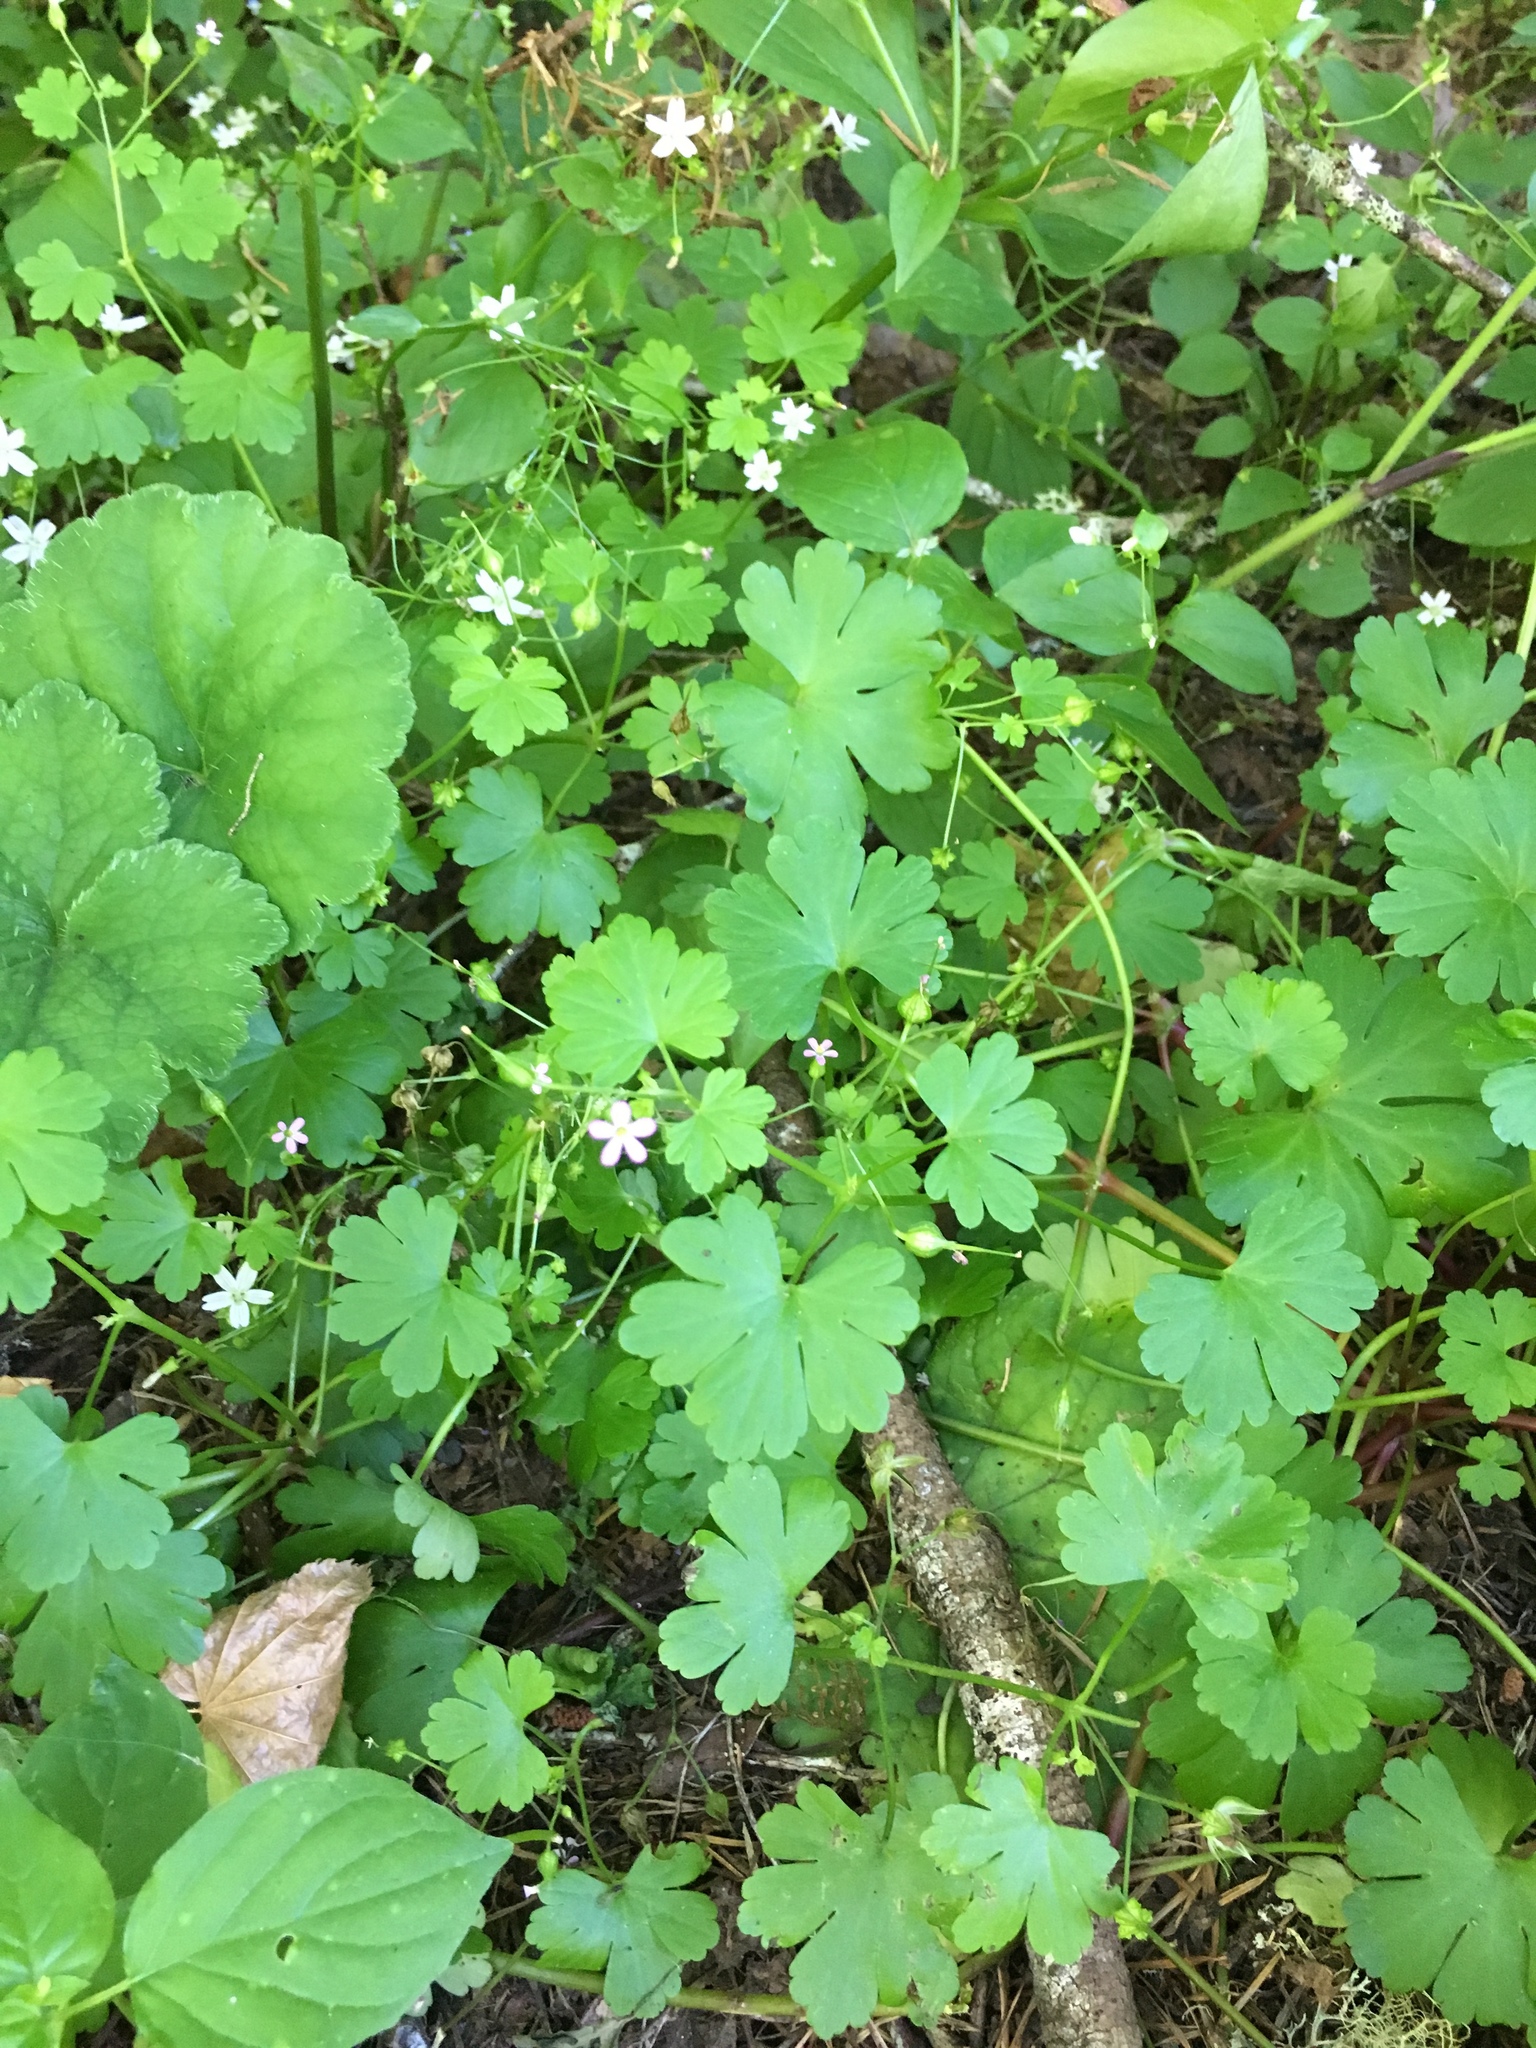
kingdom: Plantae
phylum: Tracheophyta
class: Magnoliopsida
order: Geraniales
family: Geraniaceae
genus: Geranium
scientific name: Geranium lucidum
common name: Shining crane's-bill
